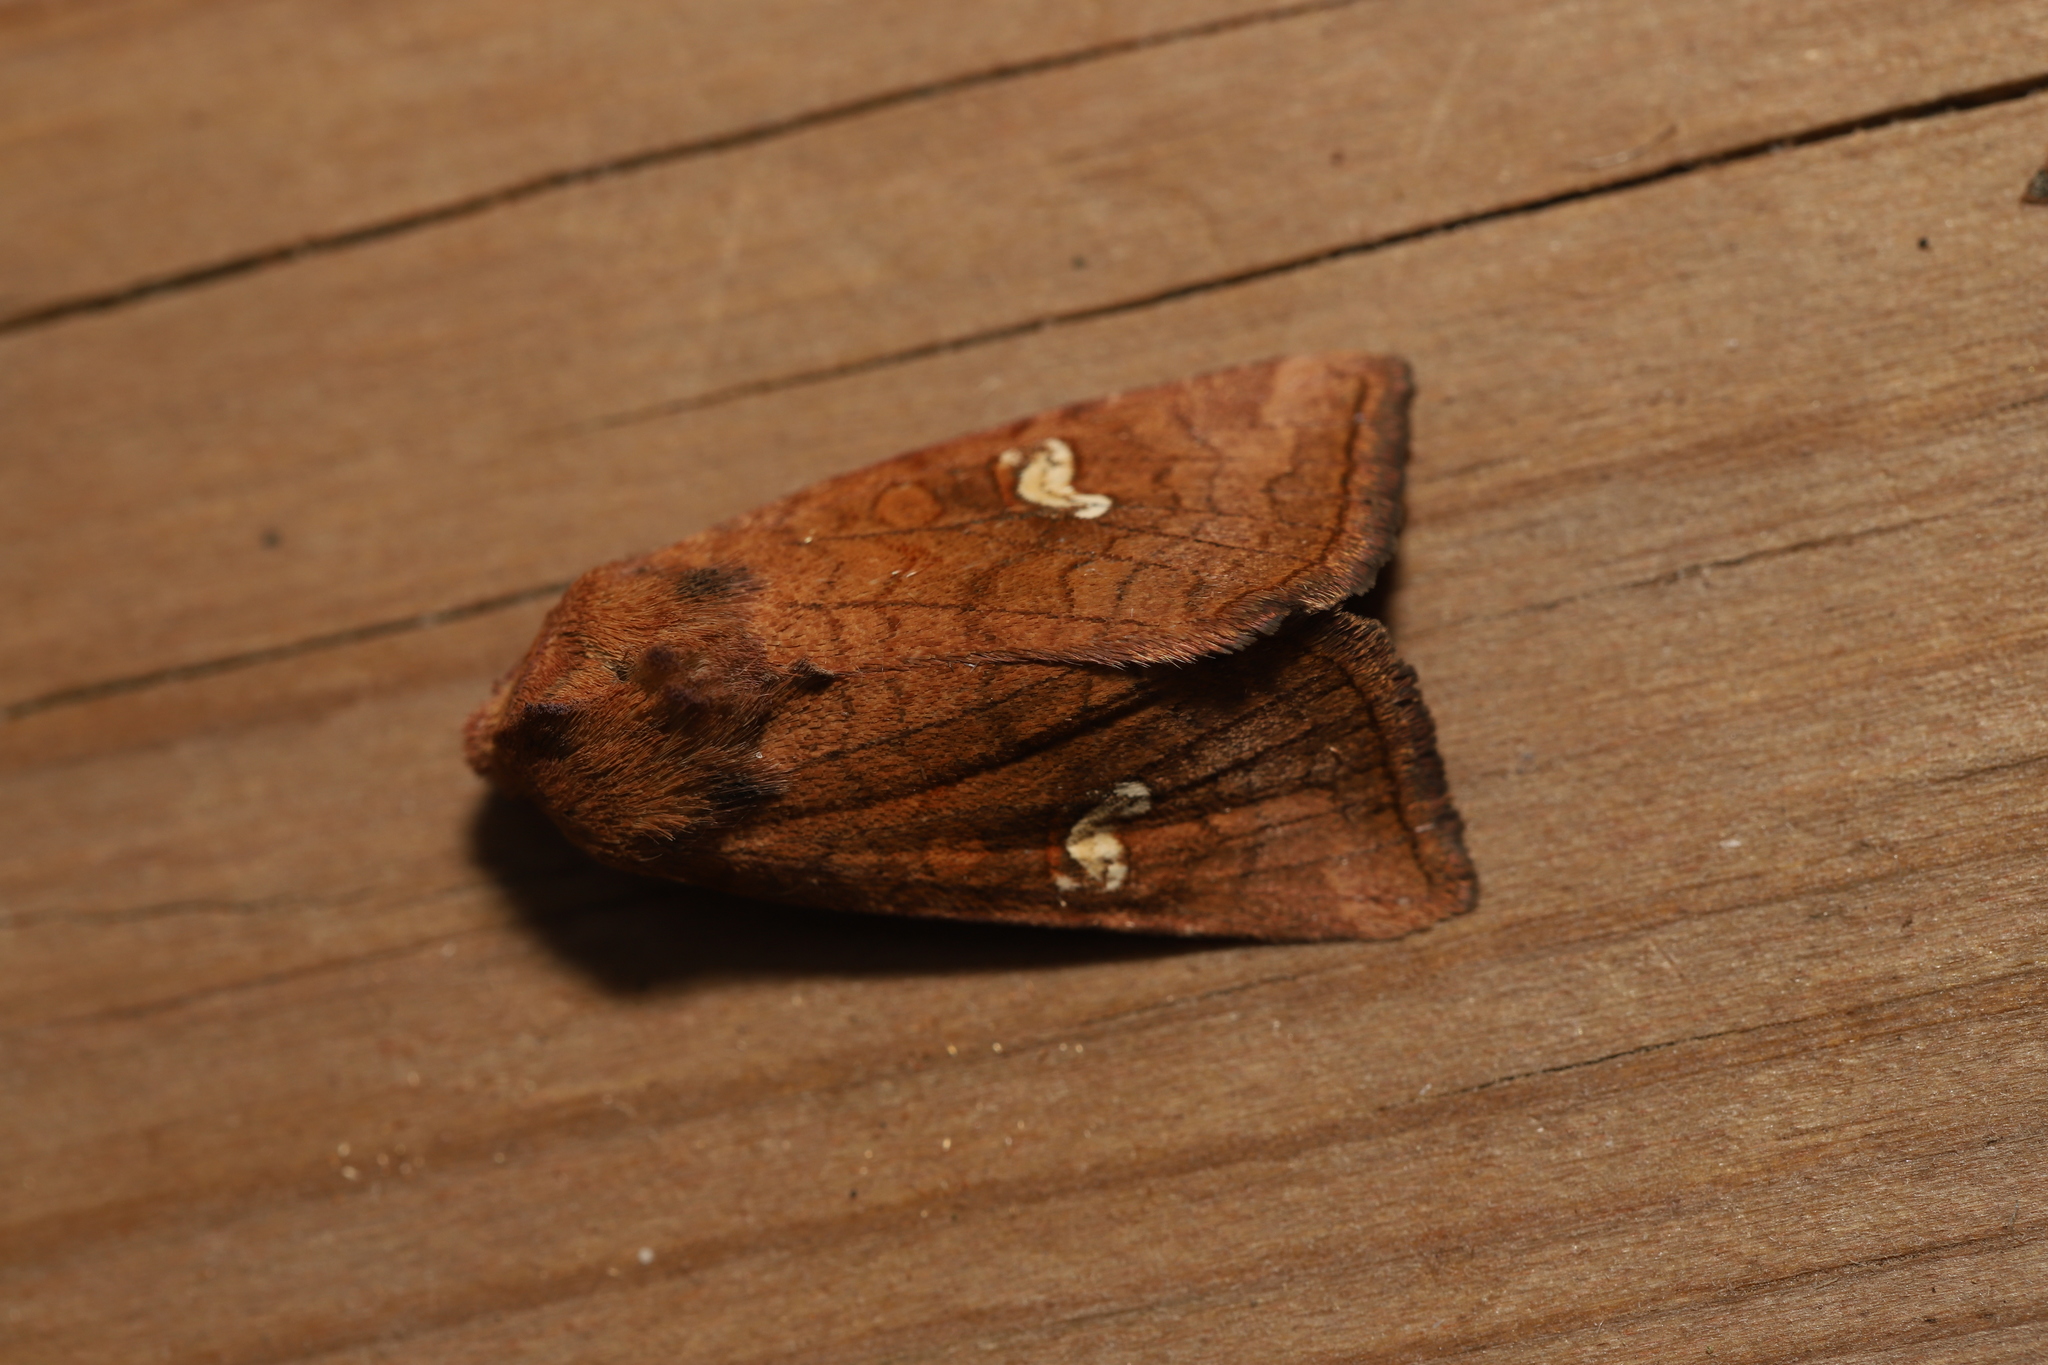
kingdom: Animalia
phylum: Arthropoda
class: Insecta
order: Lepidoptera
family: Noctuidae
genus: Amphipoea
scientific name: Amphipoea americana
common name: American ear moth
